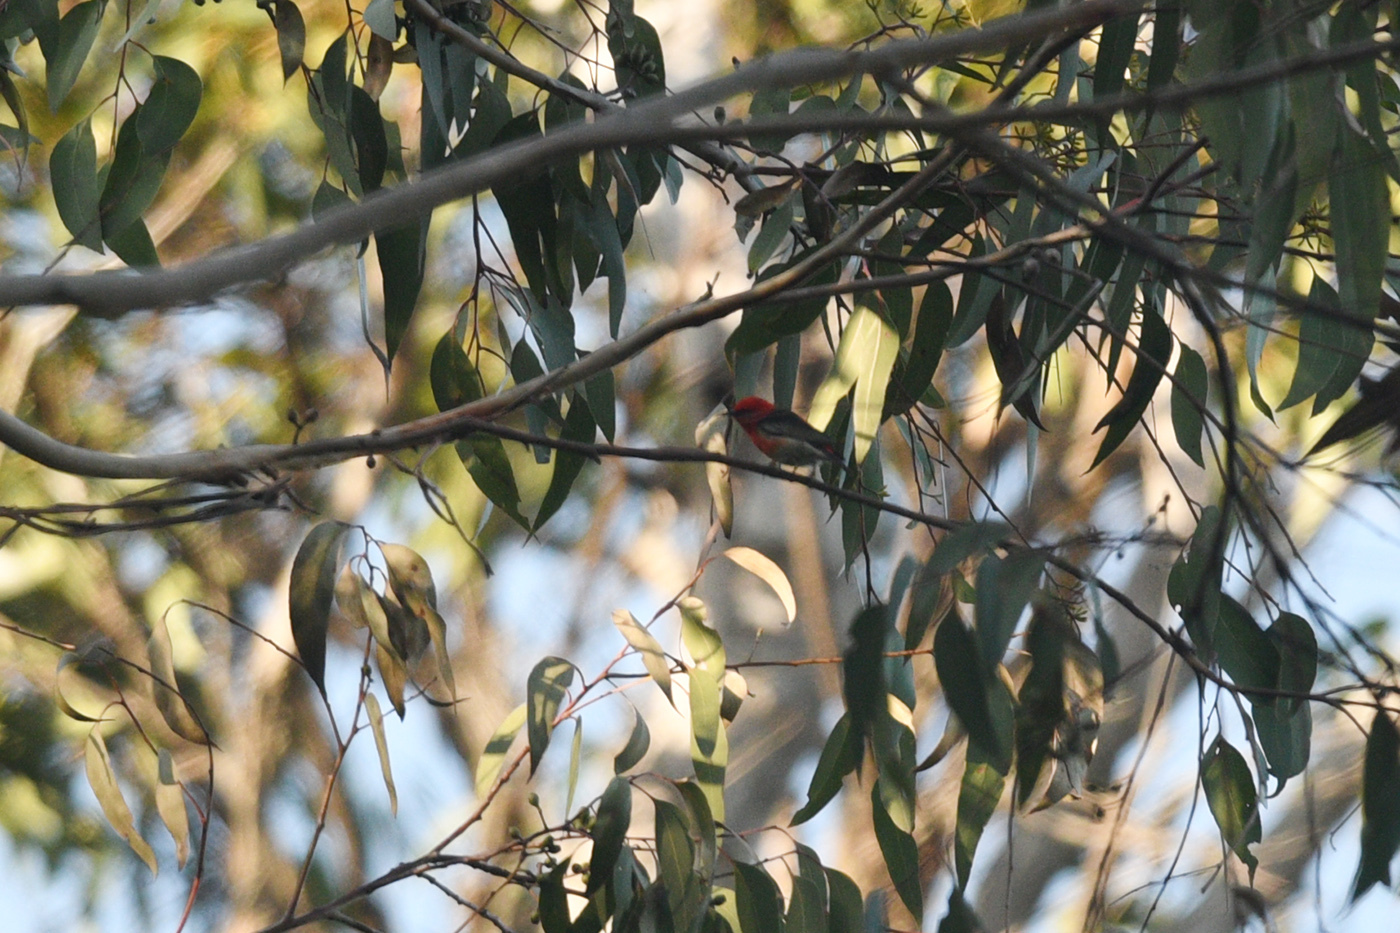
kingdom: Animalia
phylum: Chordata
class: Aves
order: Passeriformes
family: Meliphagidae
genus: Myzomela
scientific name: Myzomela sanguinolenta
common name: Scarlet myzomela
